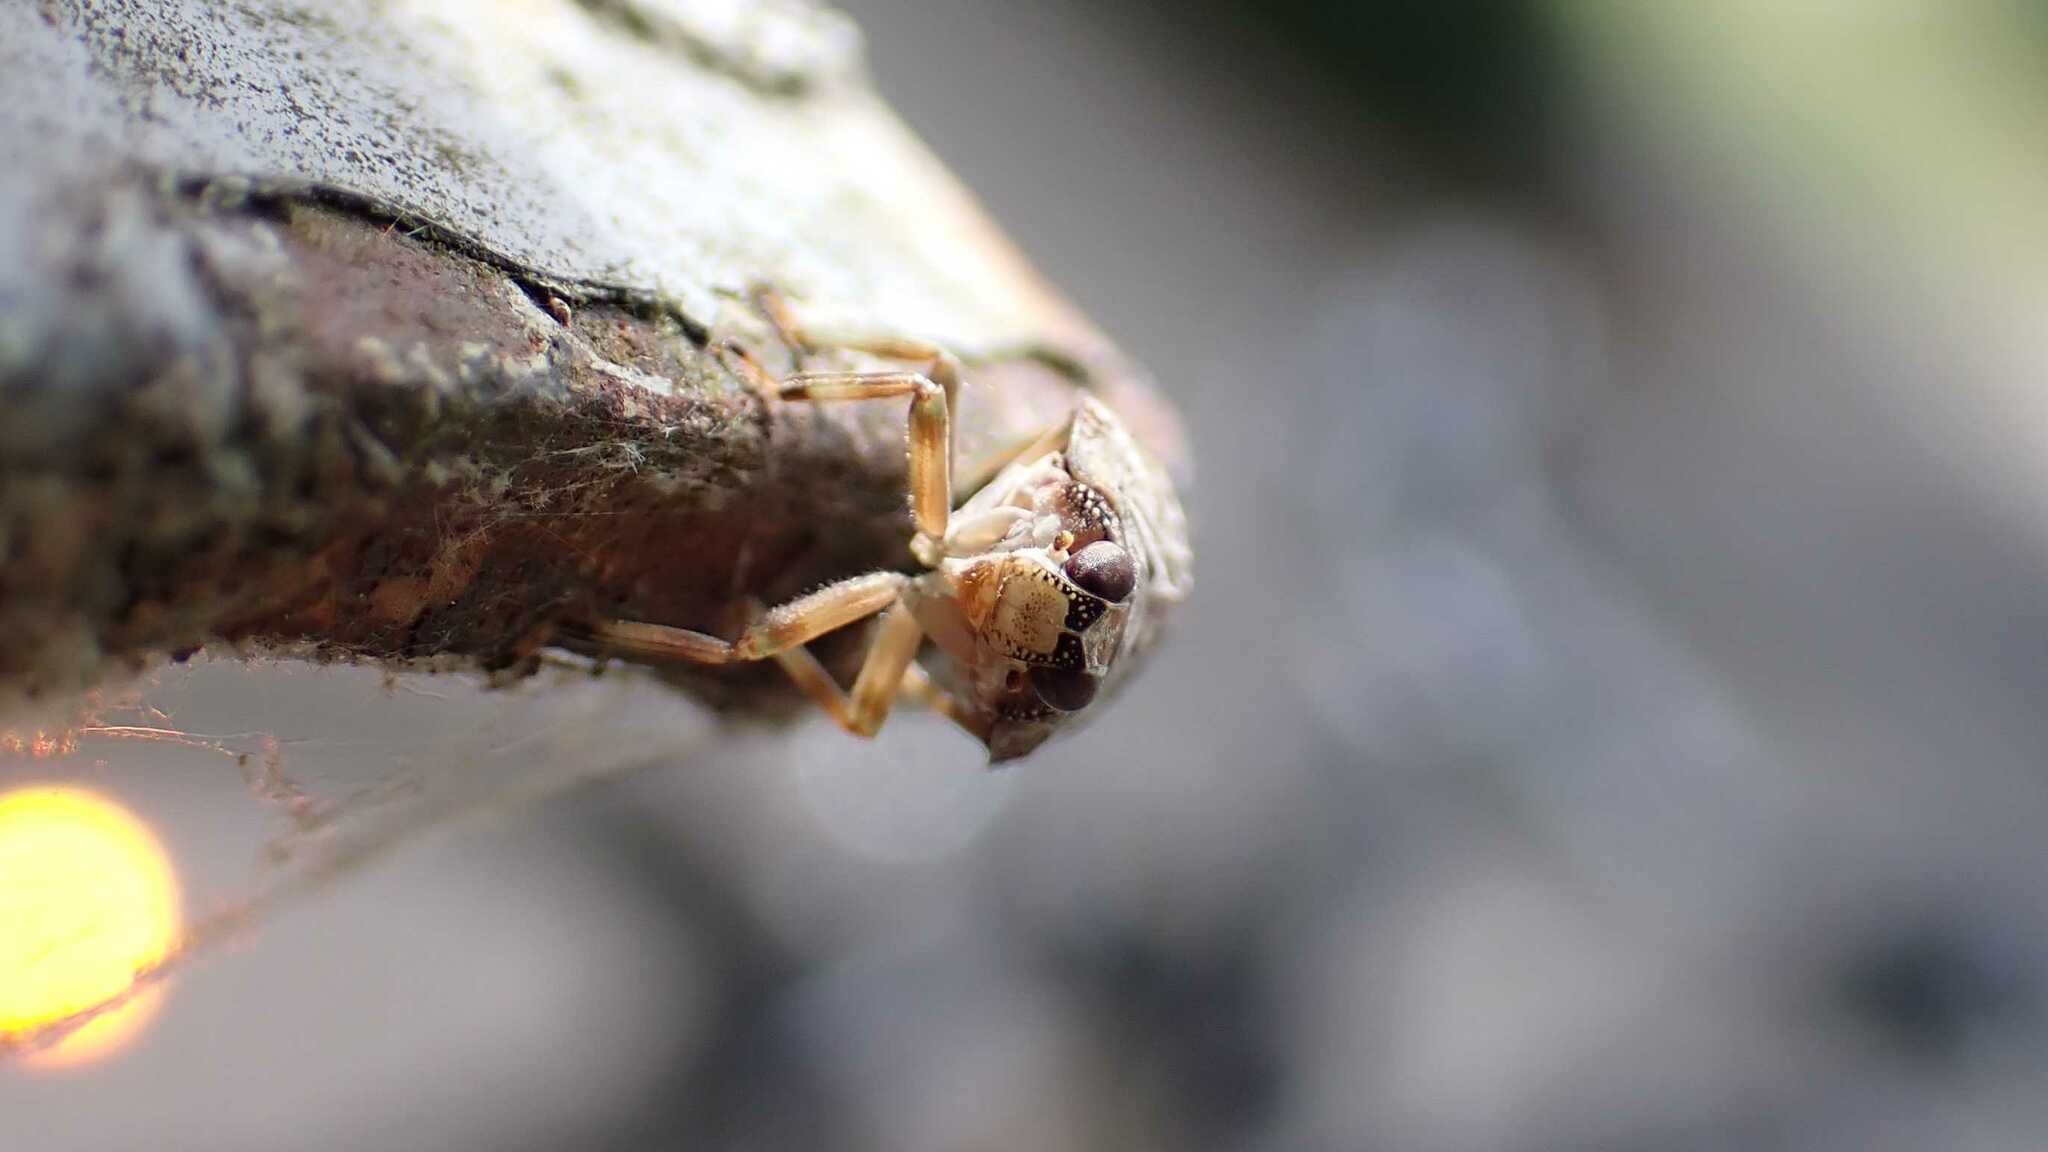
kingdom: Animalia
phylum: Arthropoda
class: Insecta
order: Hemiptera
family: Issidae
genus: Issus
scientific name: Issus coleoptratus
